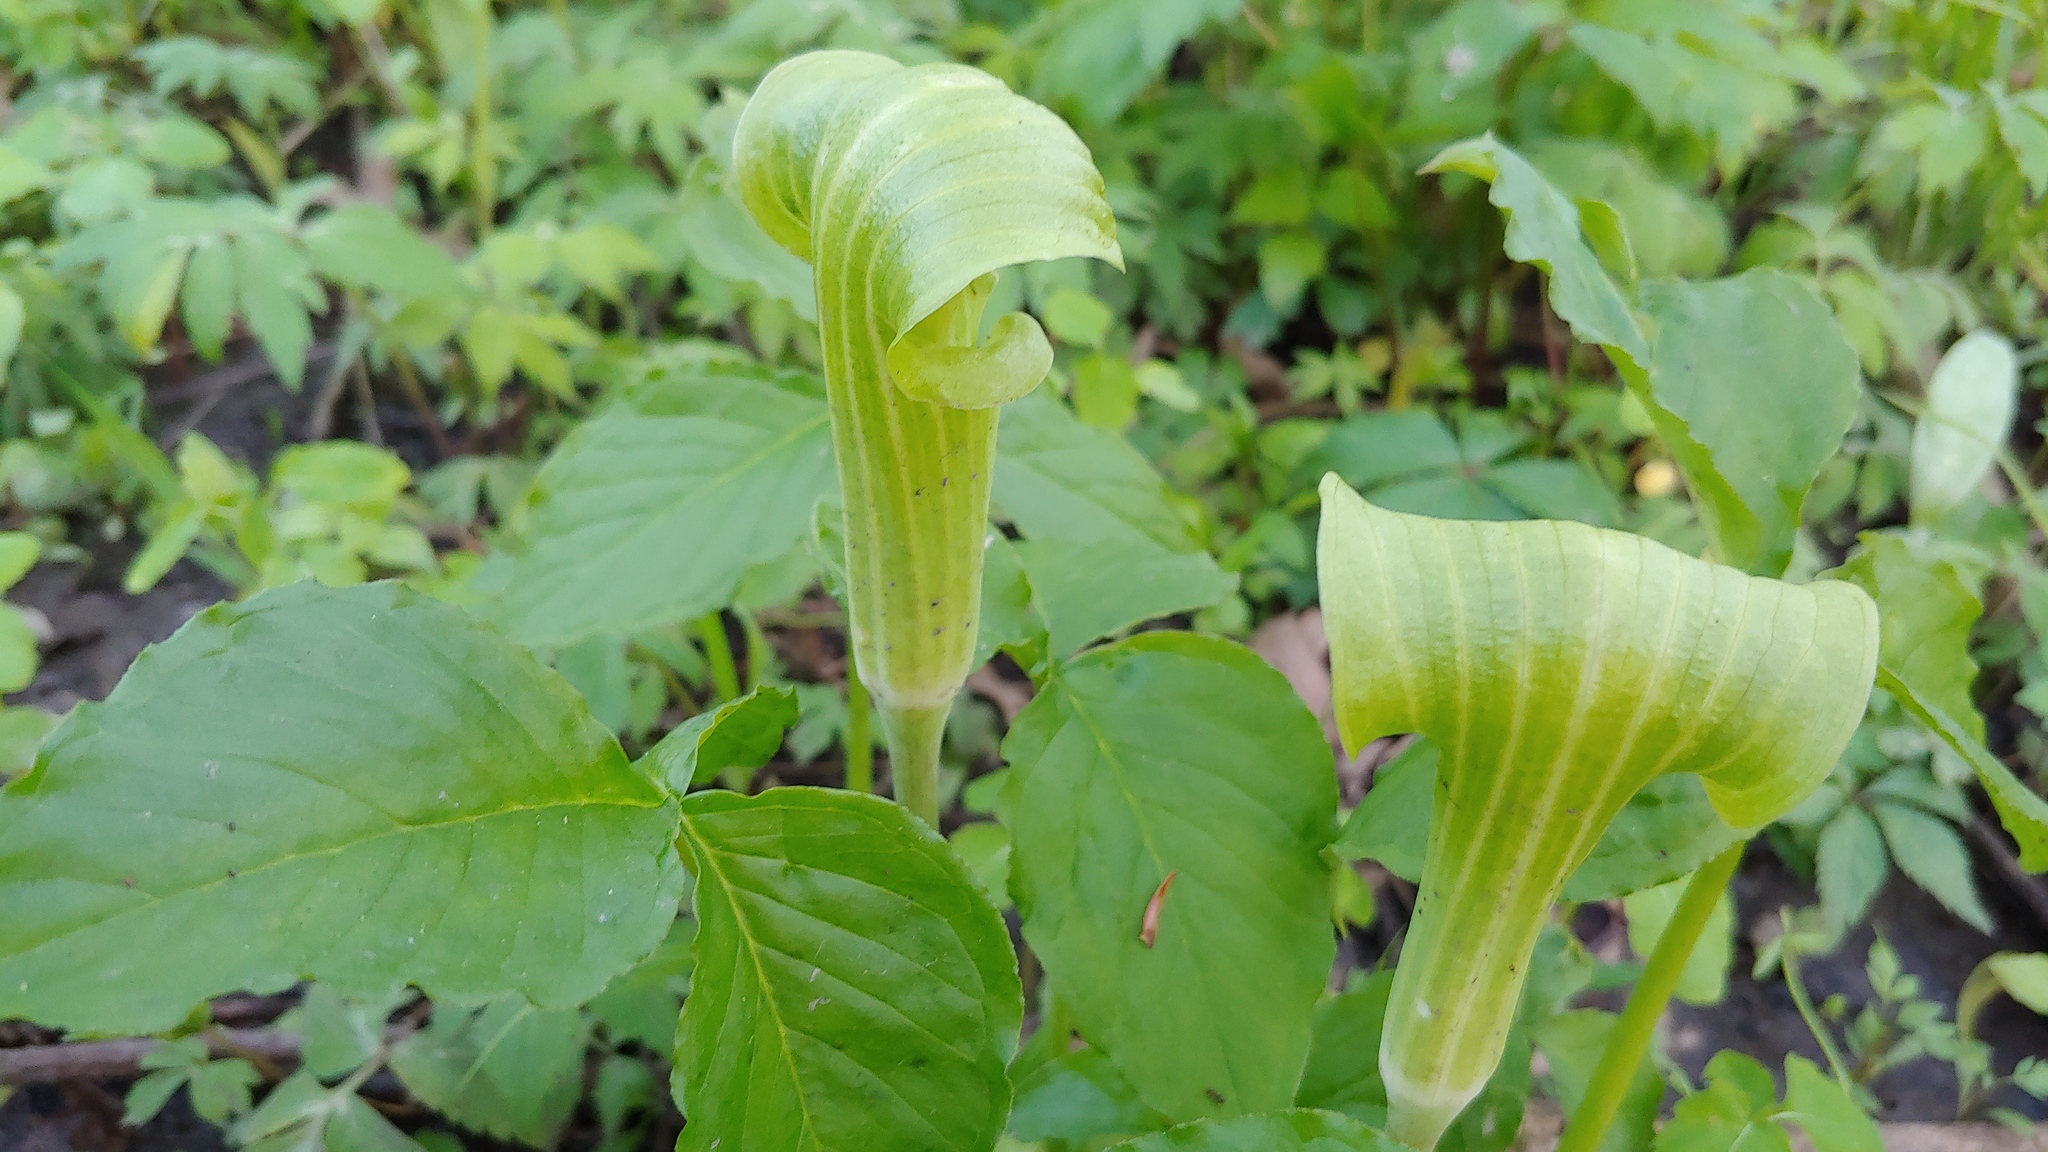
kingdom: Plantae
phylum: Tracheophyta
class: Liliopsida
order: Alismatales
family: Araceae
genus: Arisaema
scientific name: Arisaema triphyllum
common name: Jack-in-the-pulpit
